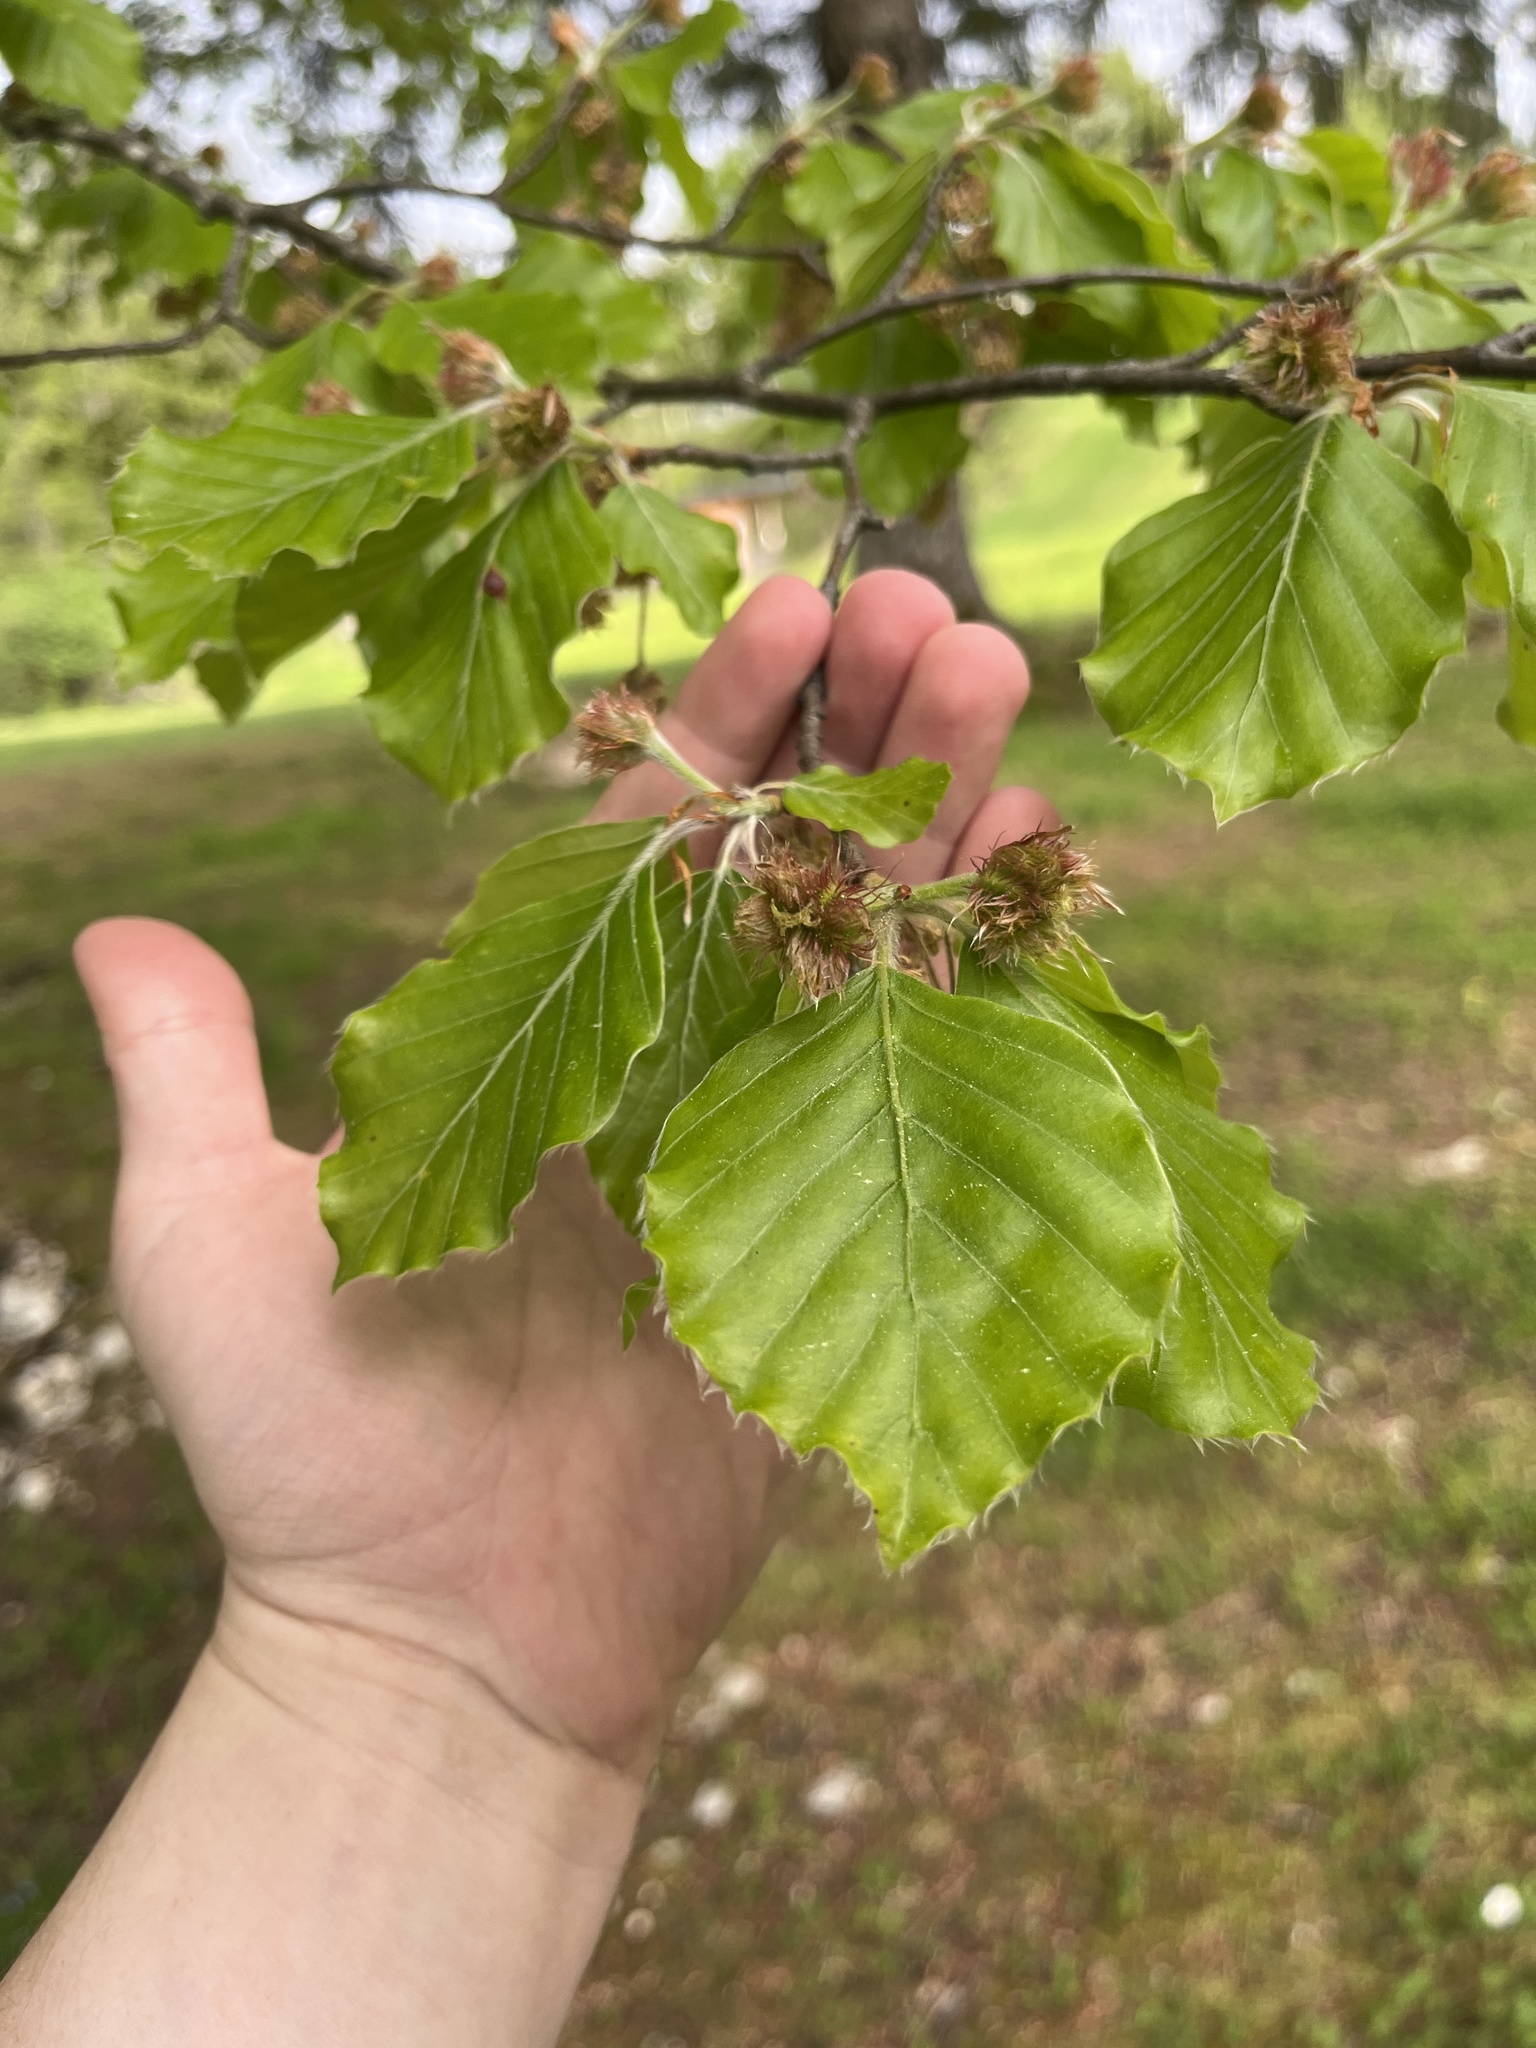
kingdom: Plantae
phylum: Tracheophyta
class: Magnoliopsida
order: Fagales
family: Fagaceae
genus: Fagus
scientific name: Fagus sylvatica
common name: Beech
